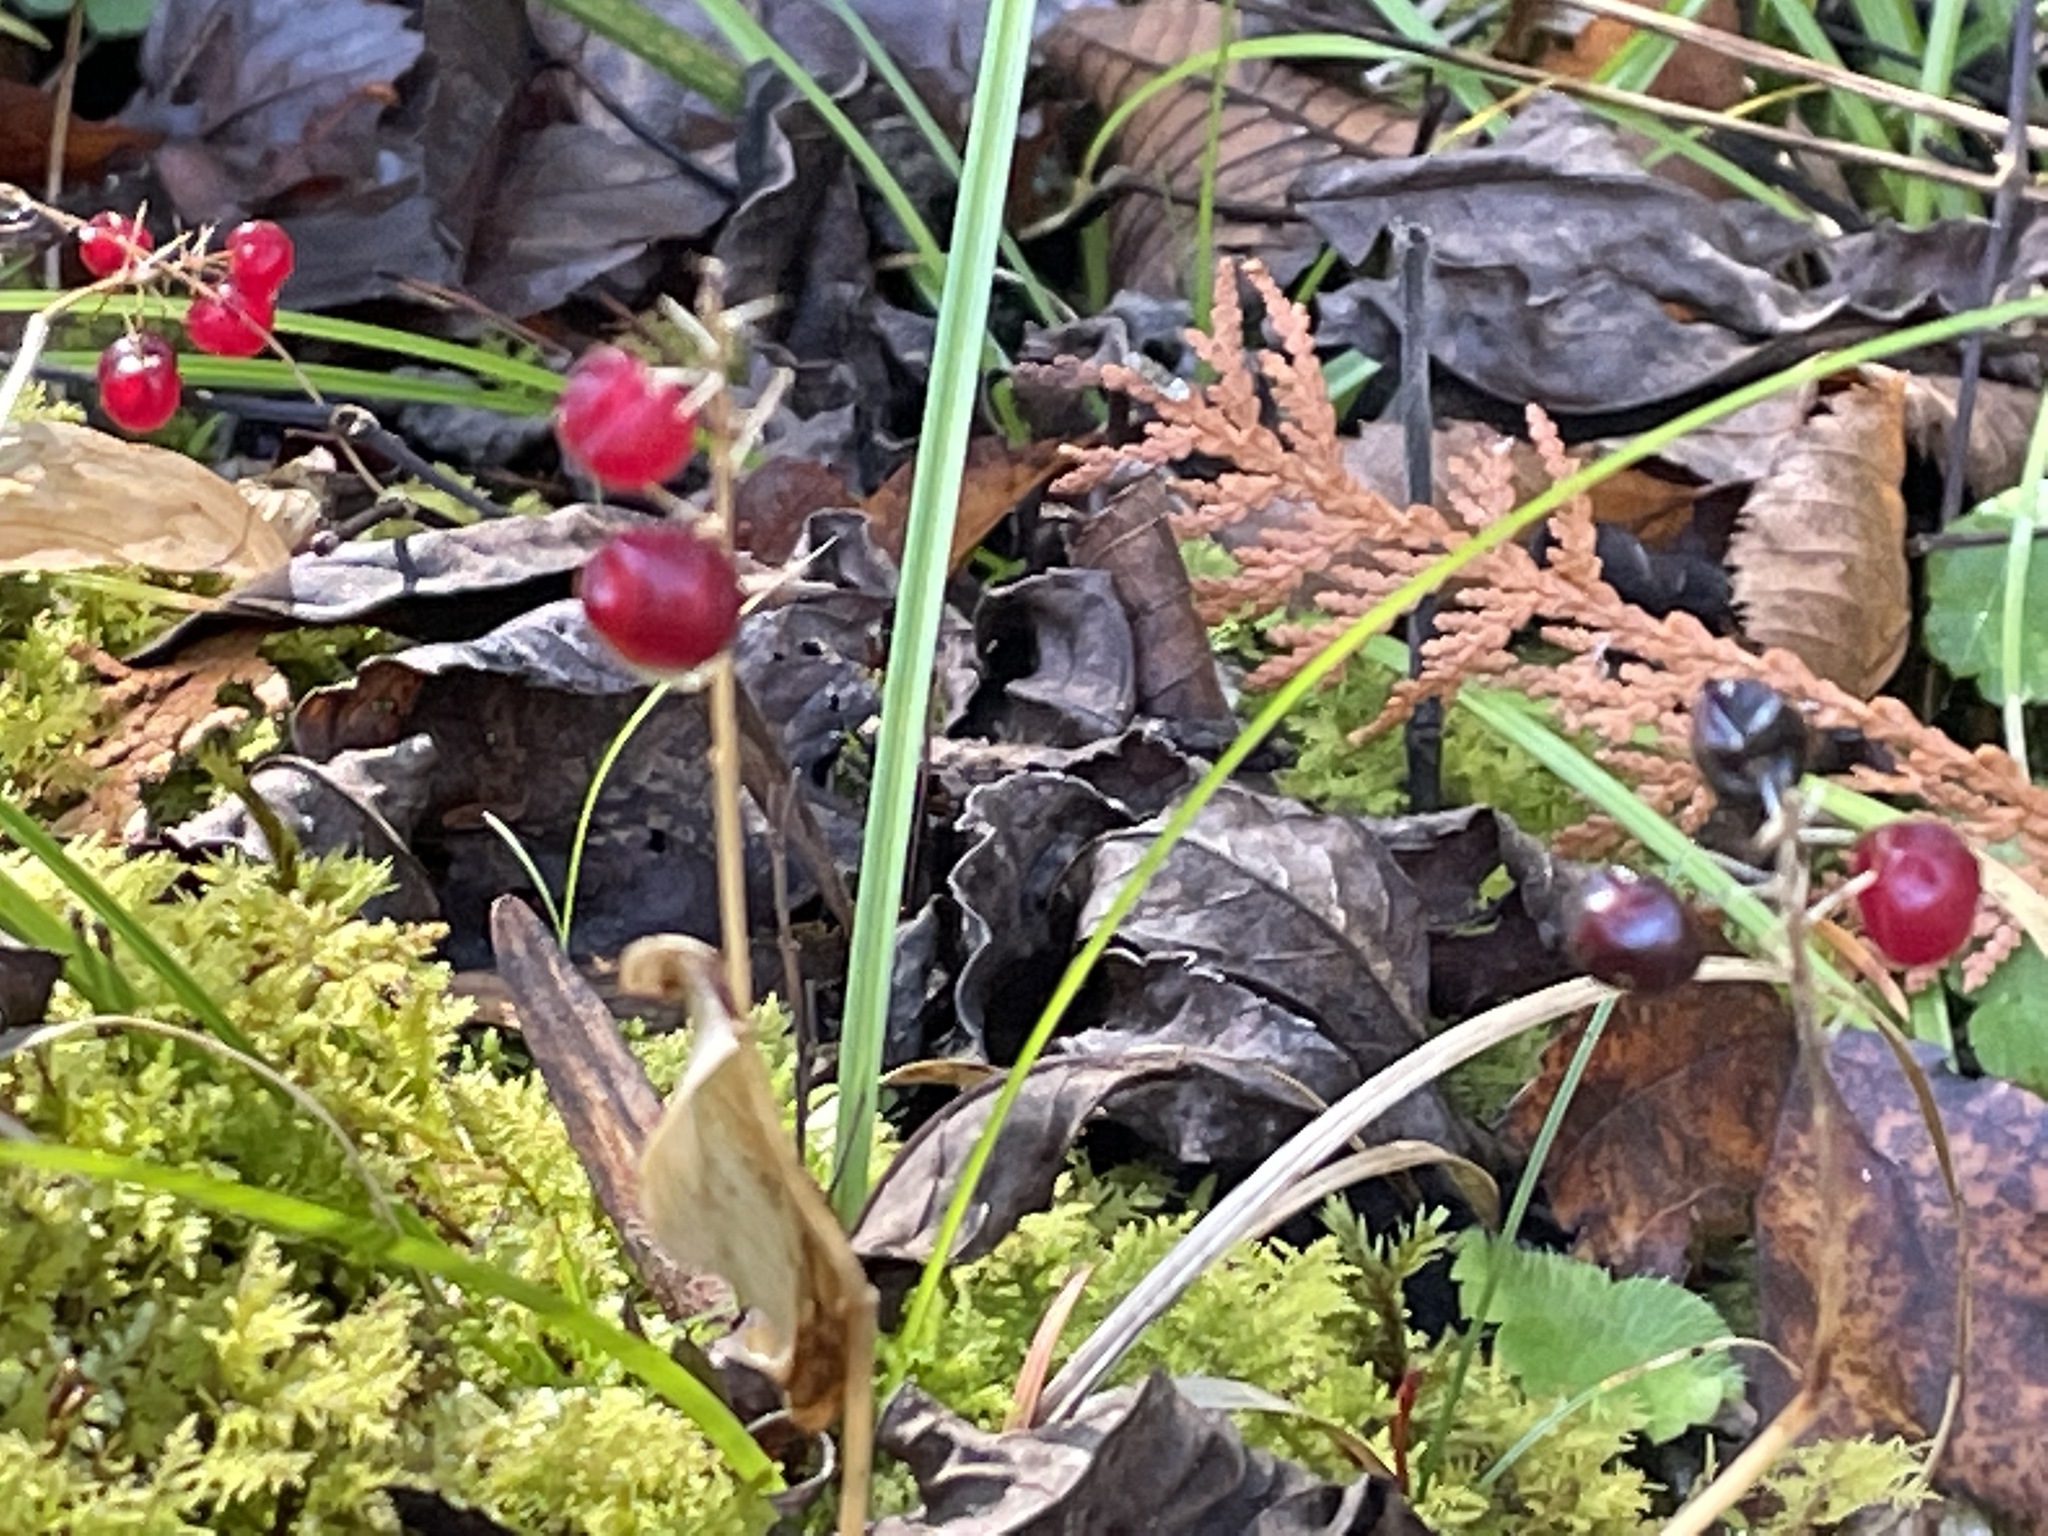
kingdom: Plantae
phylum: Tracheophyta
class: Liliopsida
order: Asparagales
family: Asparagaceae
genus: Maianthemum
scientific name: Maianthemum canadense
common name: False lily-of-the-valley
